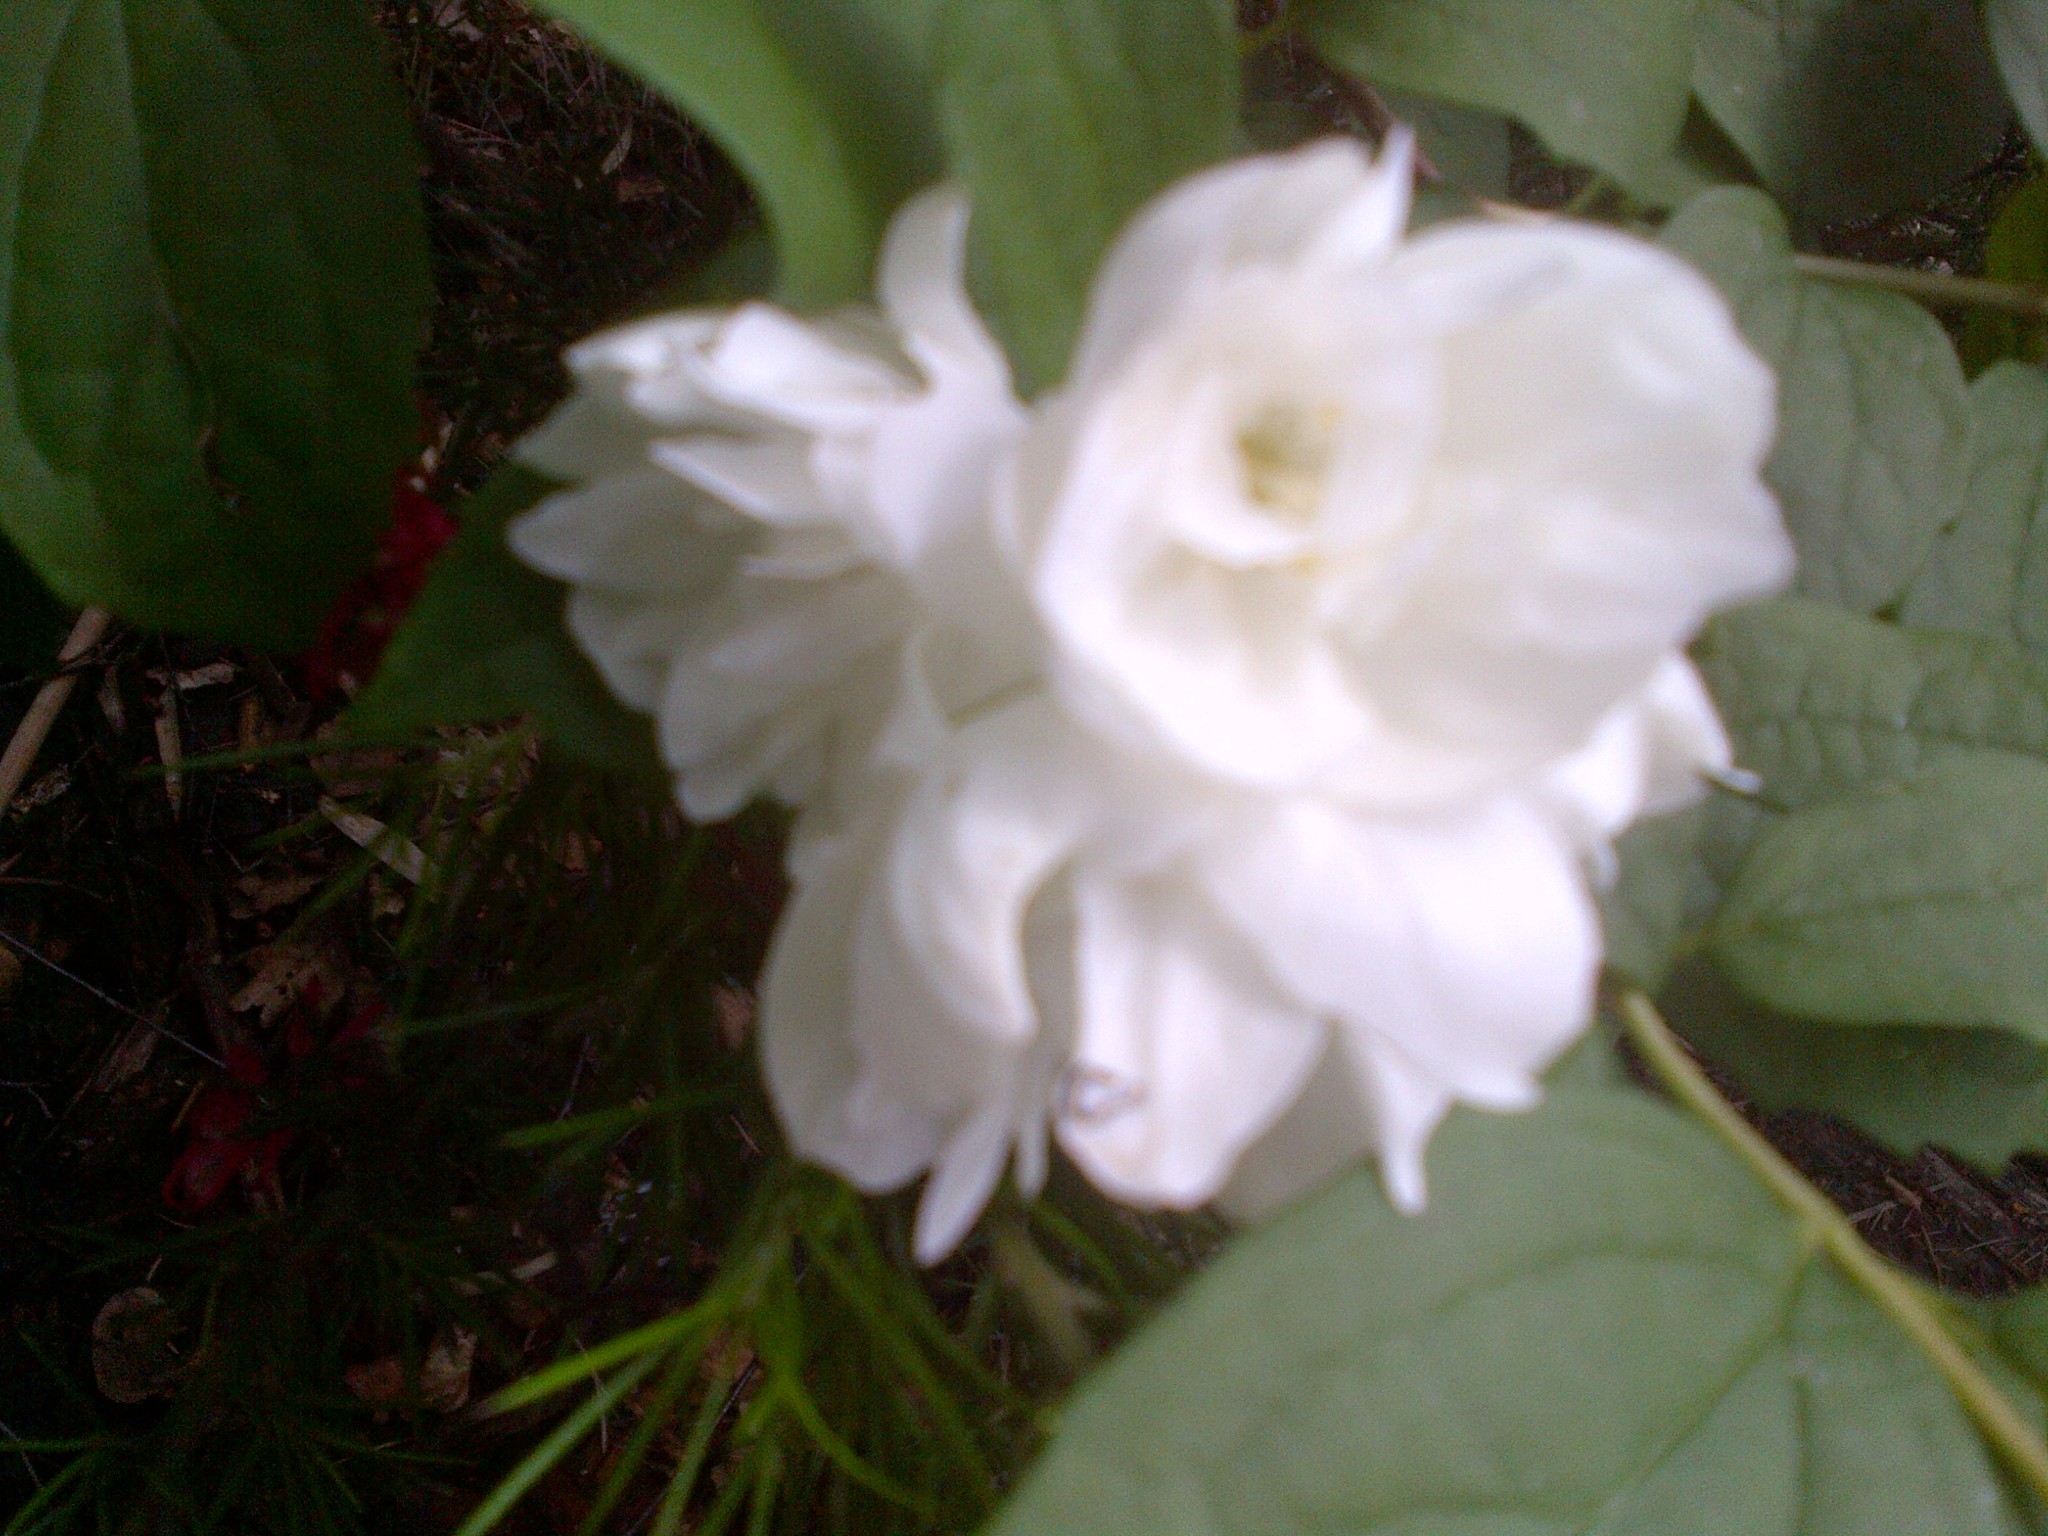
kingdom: Plantae
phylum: Tracheophyta
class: Magnoliopsida
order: Cornales
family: Hydrangeaceae
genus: Philadelphus
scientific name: Philadelphus virginalis
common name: Hairy mock orange
